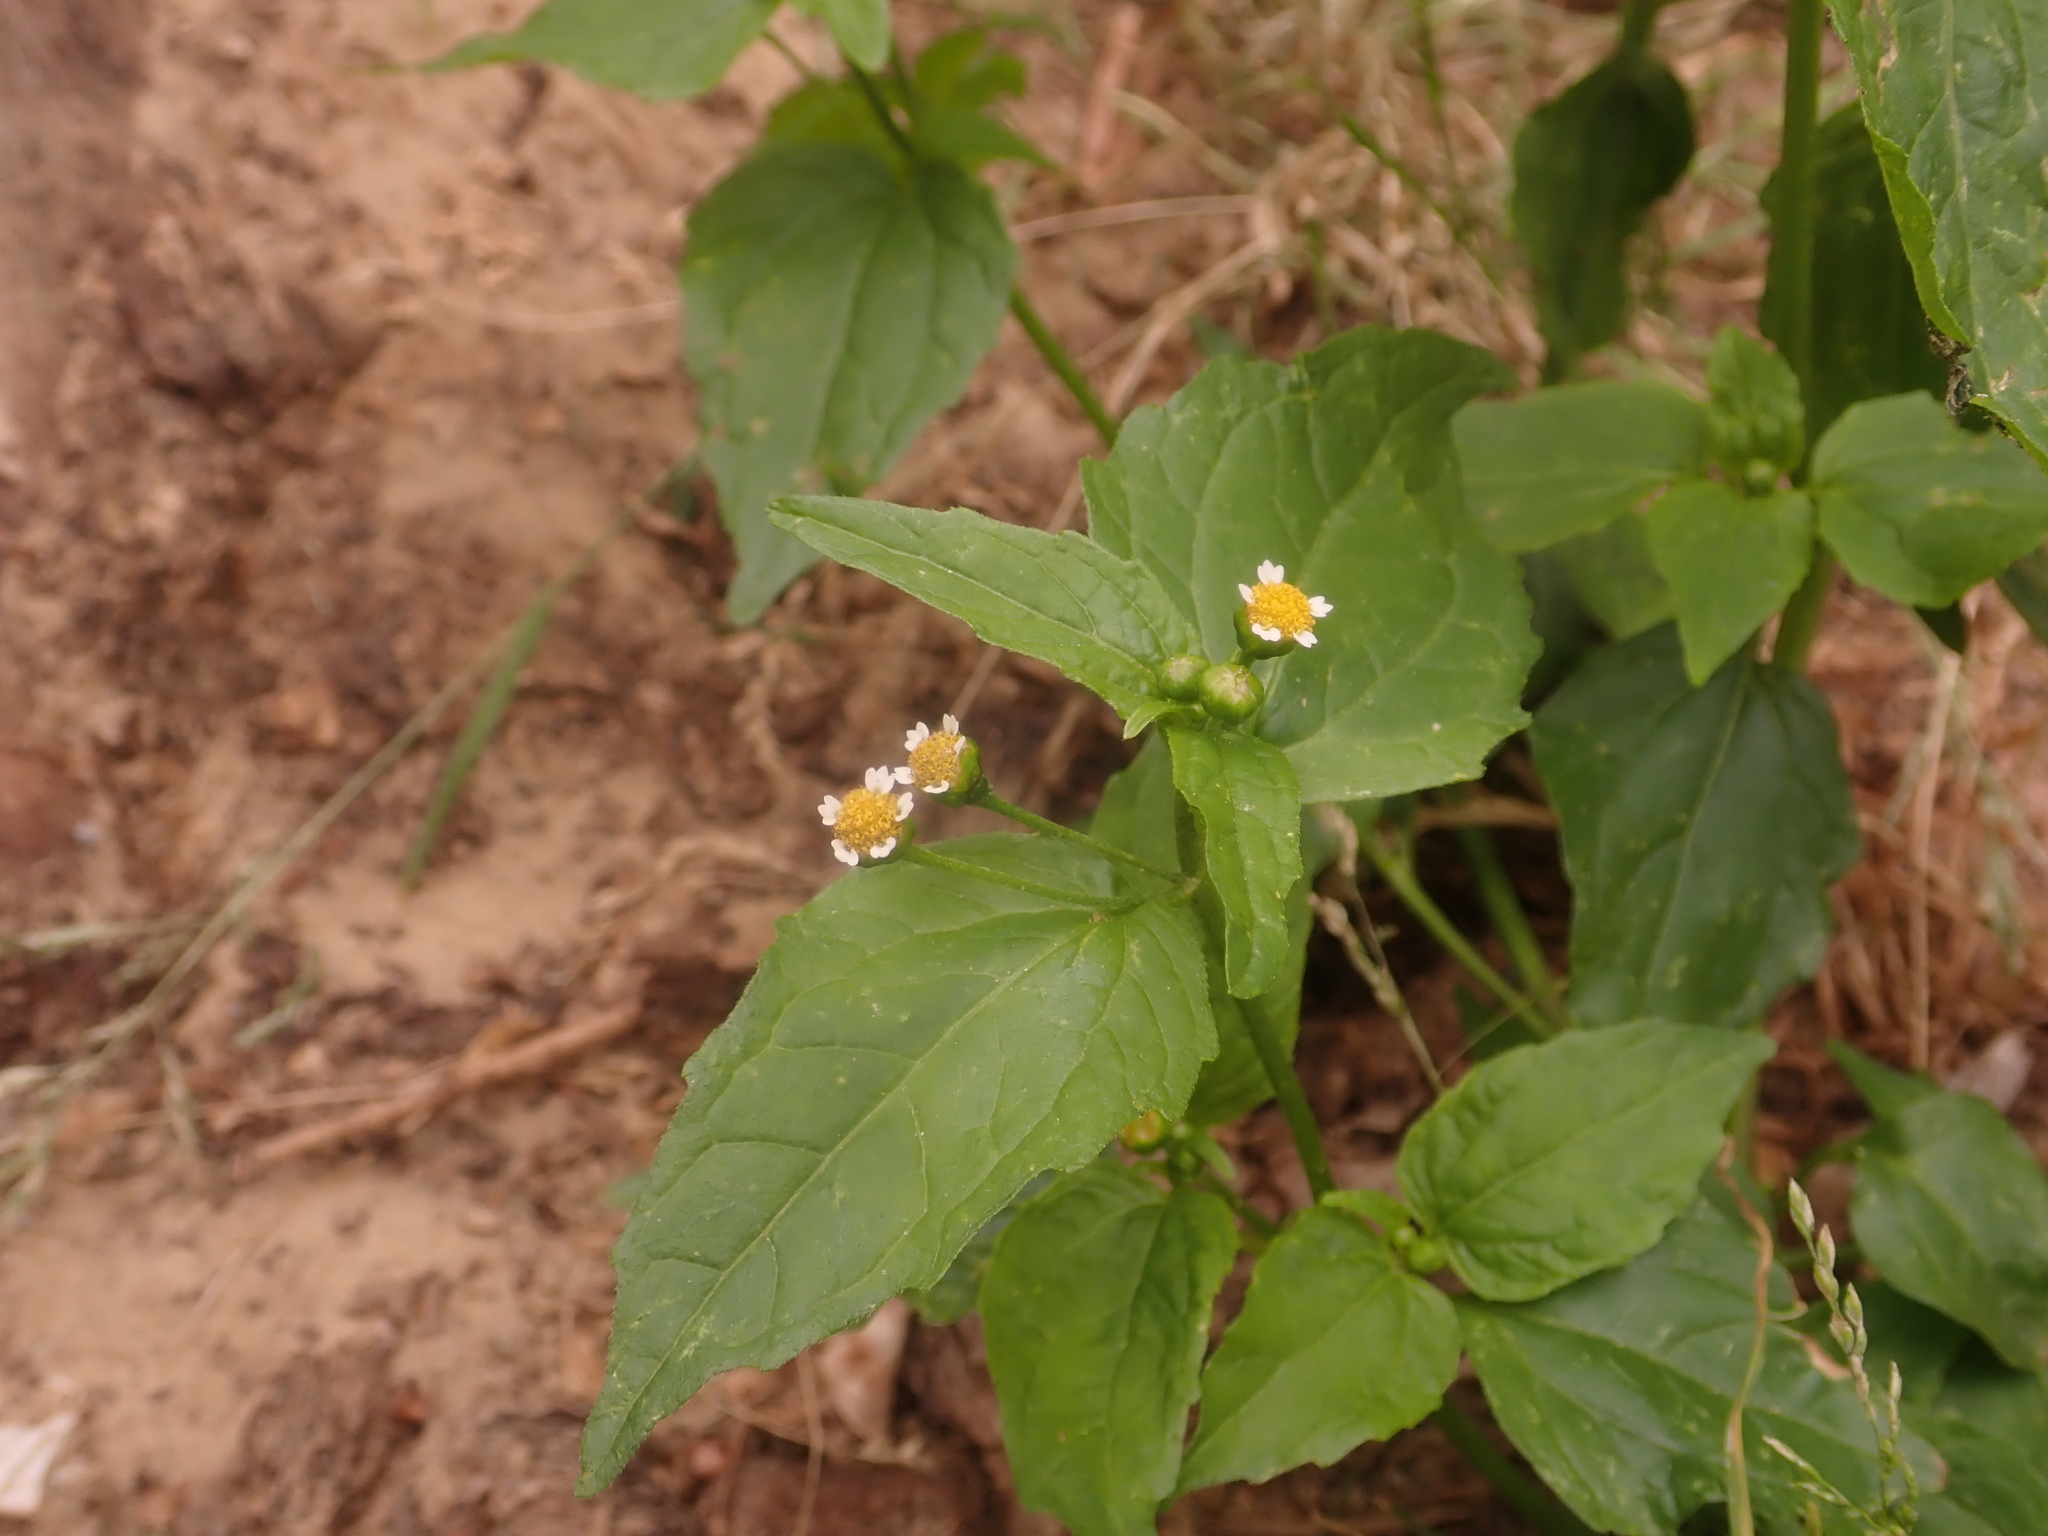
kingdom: Plantae
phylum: Tracheophyta
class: Magnoliopsida
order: Asterales
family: Asteraceae
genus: Galinsoga
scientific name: Galinsoga parviflora
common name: Gallant soldier
